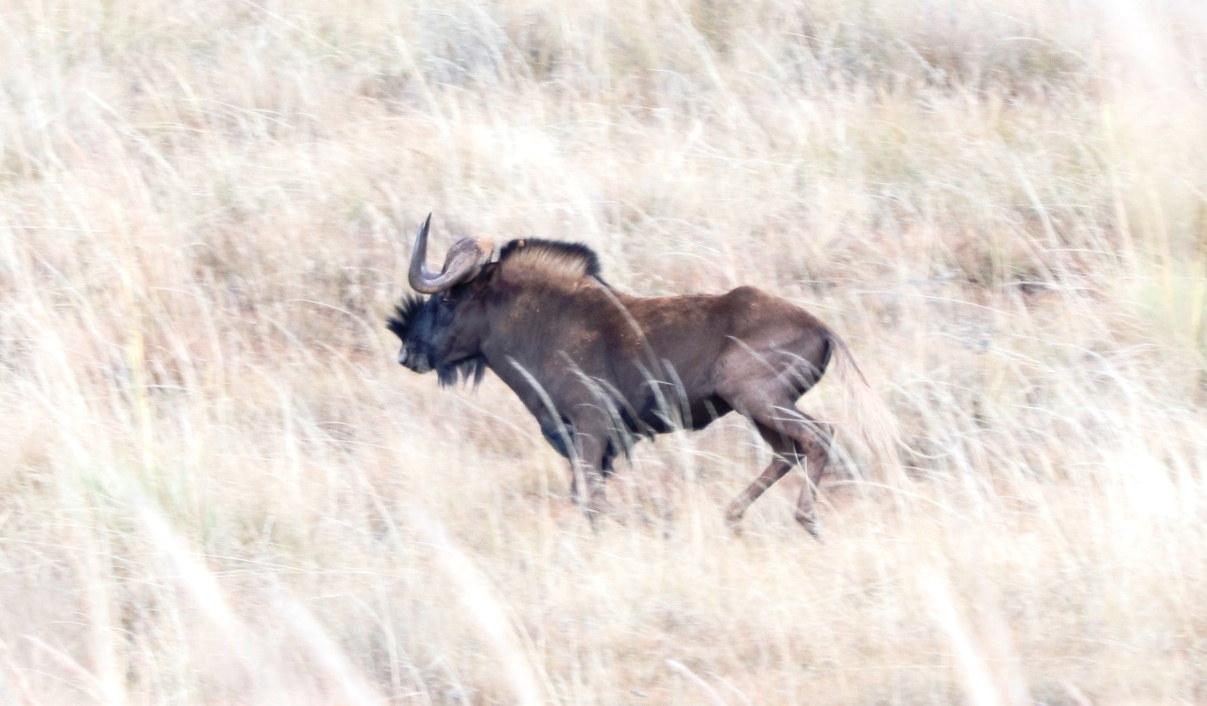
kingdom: Animalia
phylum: Chordata
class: Mammalia
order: Artiodactyla
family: Bovidae
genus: Connochaetes
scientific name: Connochaetes gnou
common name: Black wildebeest
